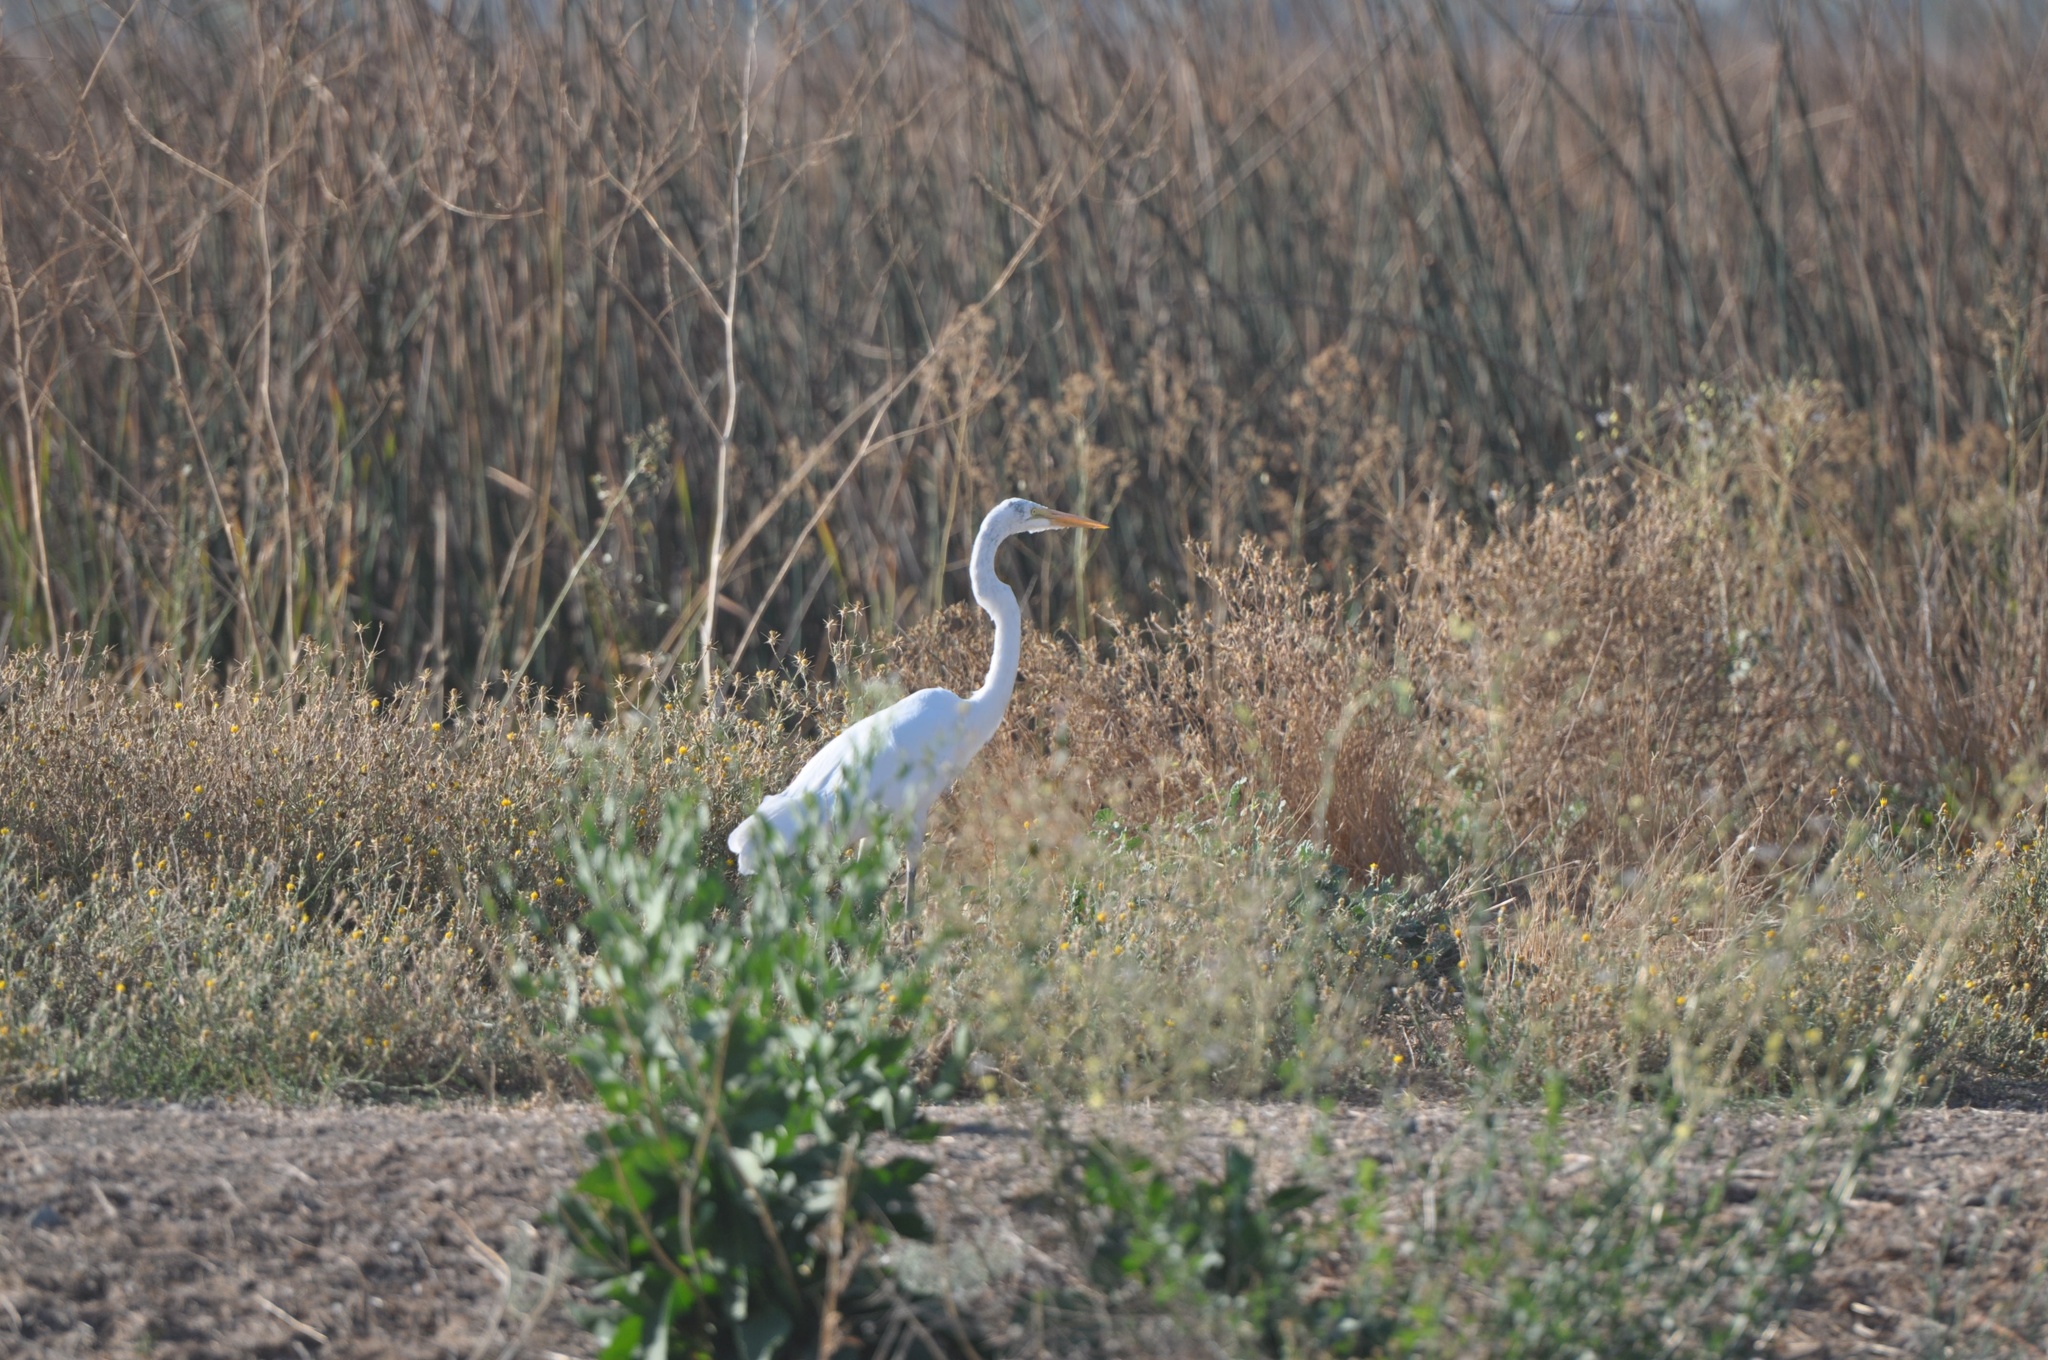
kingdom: Animalia
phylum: Chordata
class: Aves
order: Pelecaniformes
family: Ardeidae
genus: Ardea
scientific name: Ardea alba
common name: Great egret
